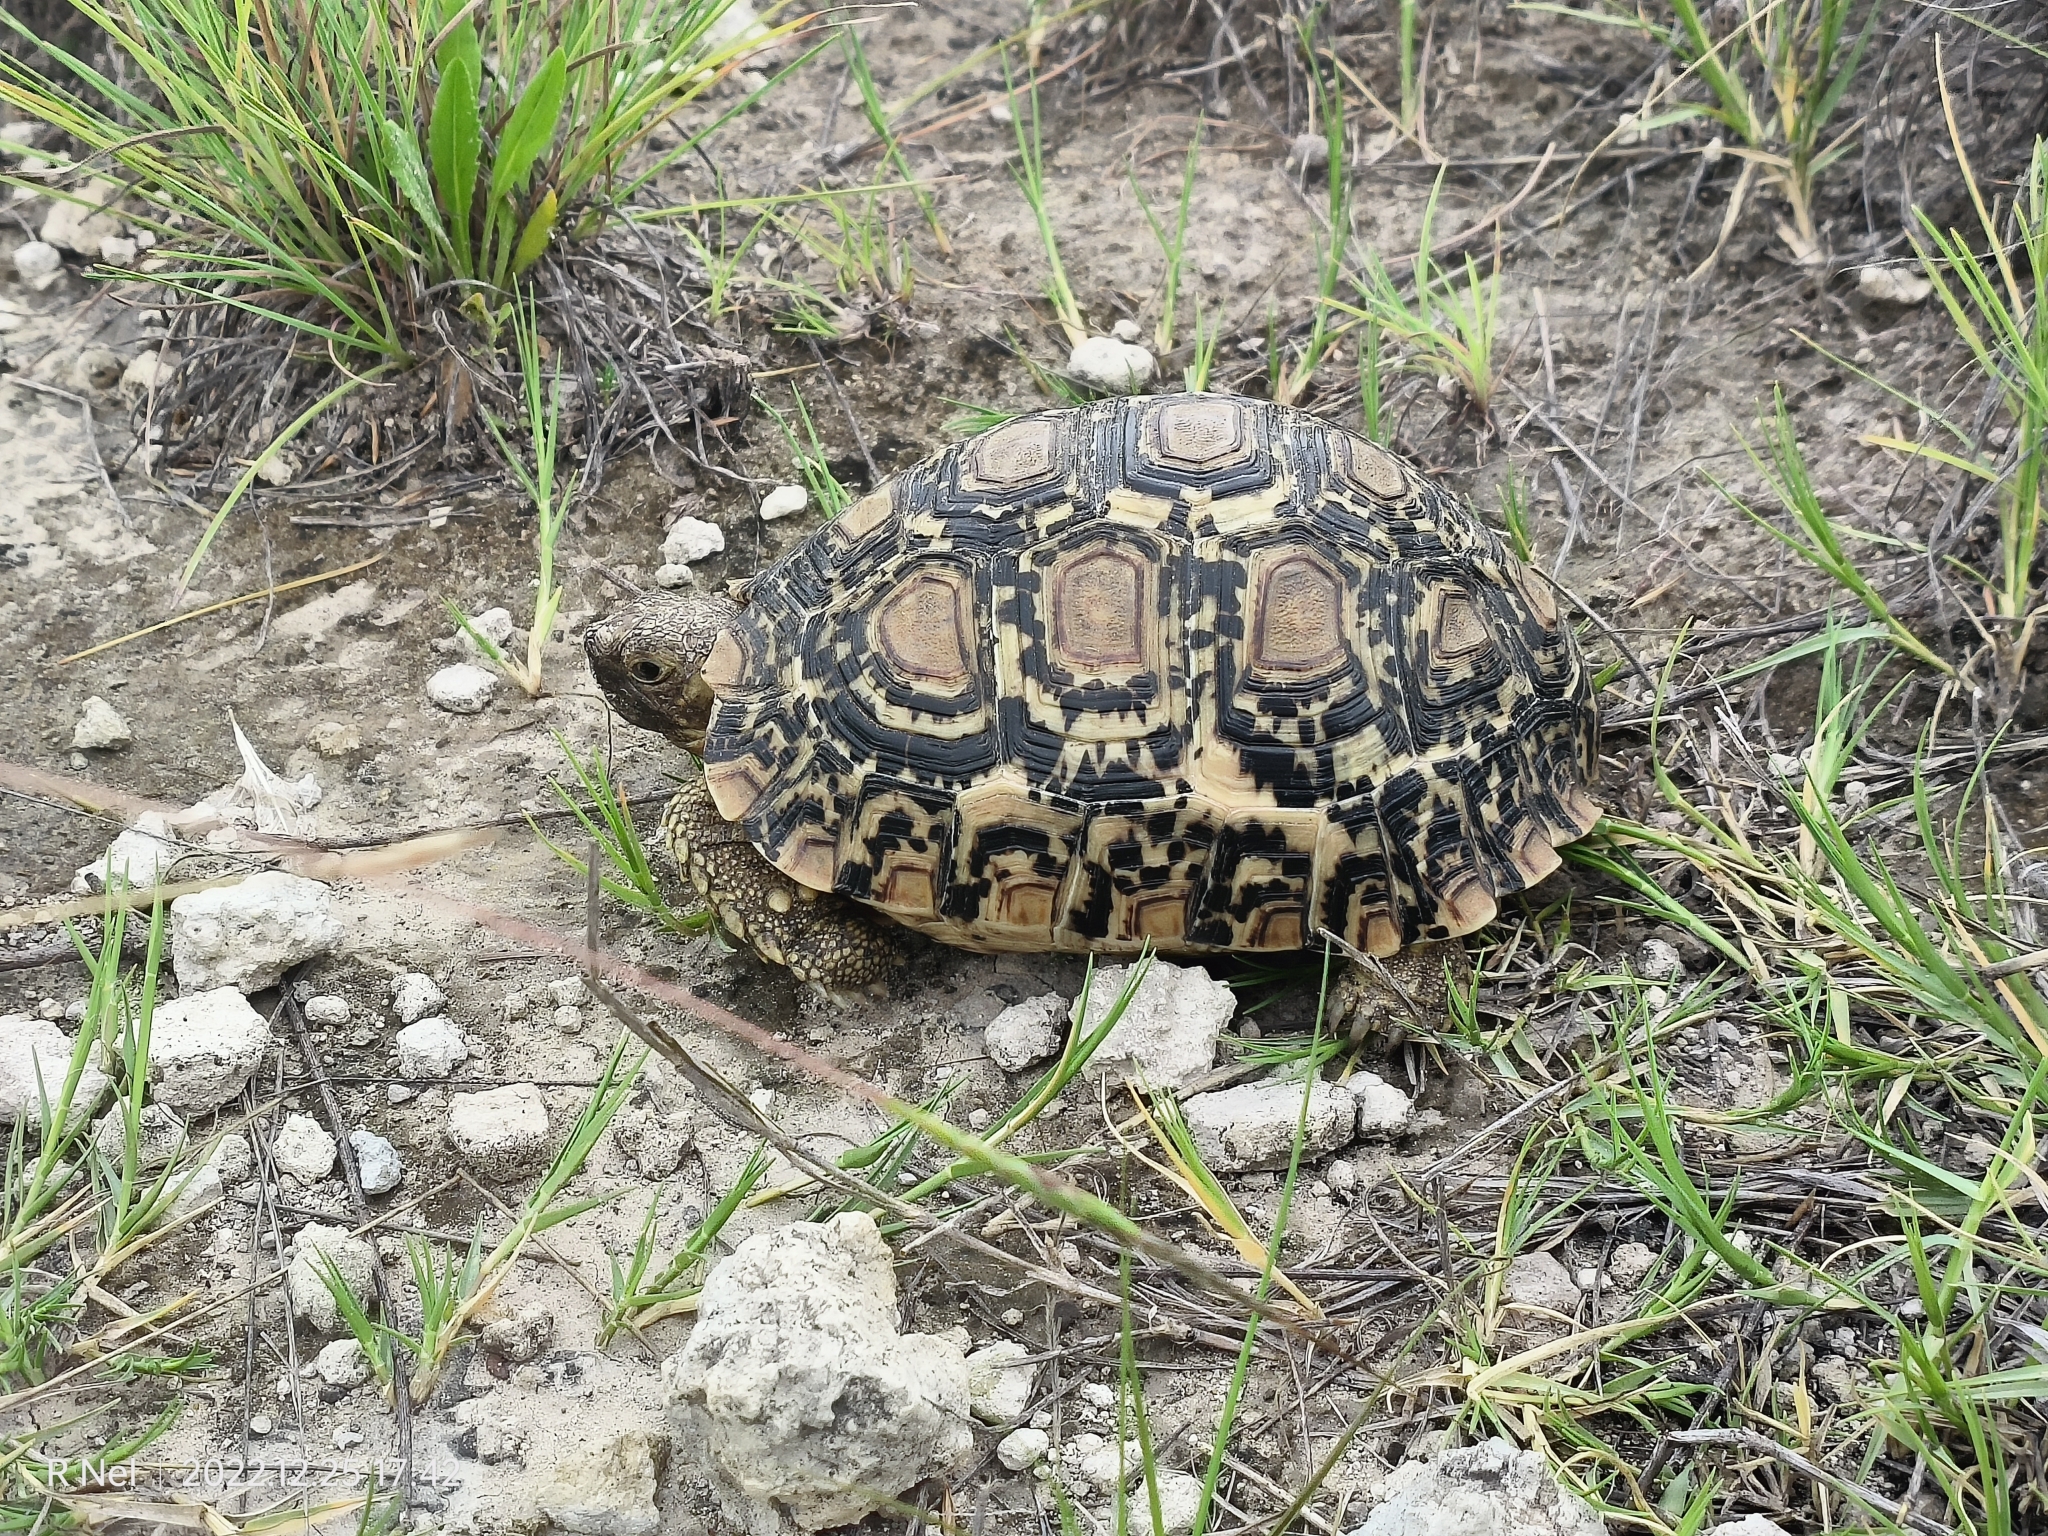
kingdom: Animalia
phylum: Chordata
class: Testudines
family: Testudinidae
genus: Stigmochelys
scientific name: Stigmochelys pardalis
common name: Leopard tortoise
